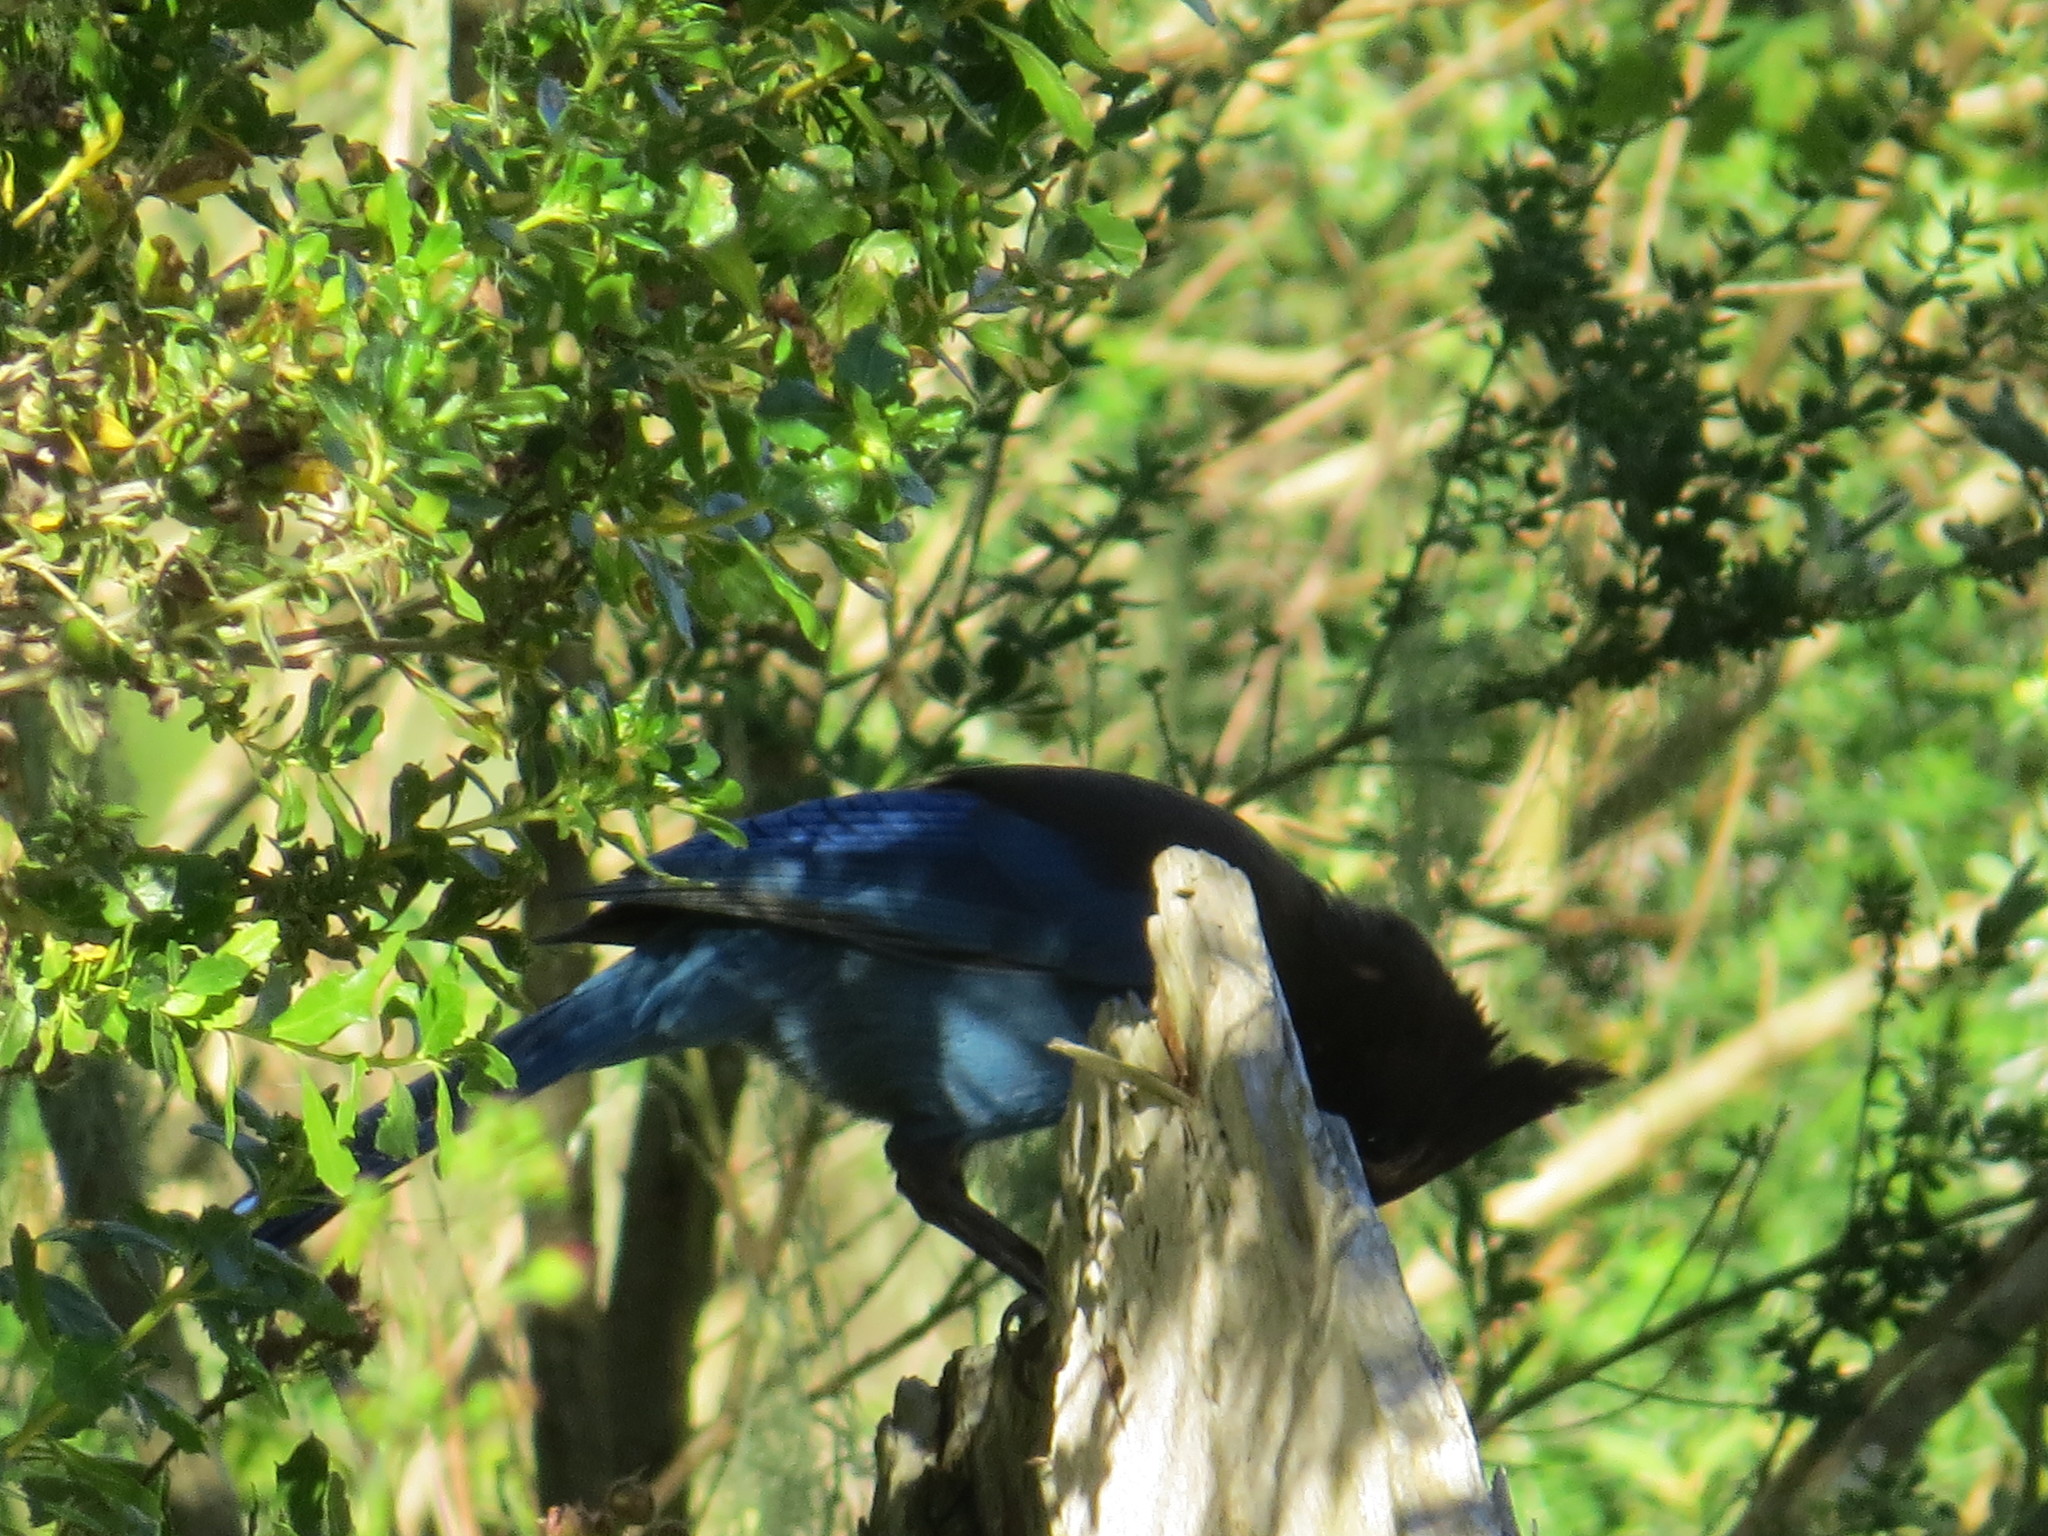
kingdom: Animalia
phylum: Chordata
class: Aves
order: Passeriformes
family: Corvidae
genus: Cyanocitta
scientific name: Cyanocitta stelleri
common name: Steller's jay
